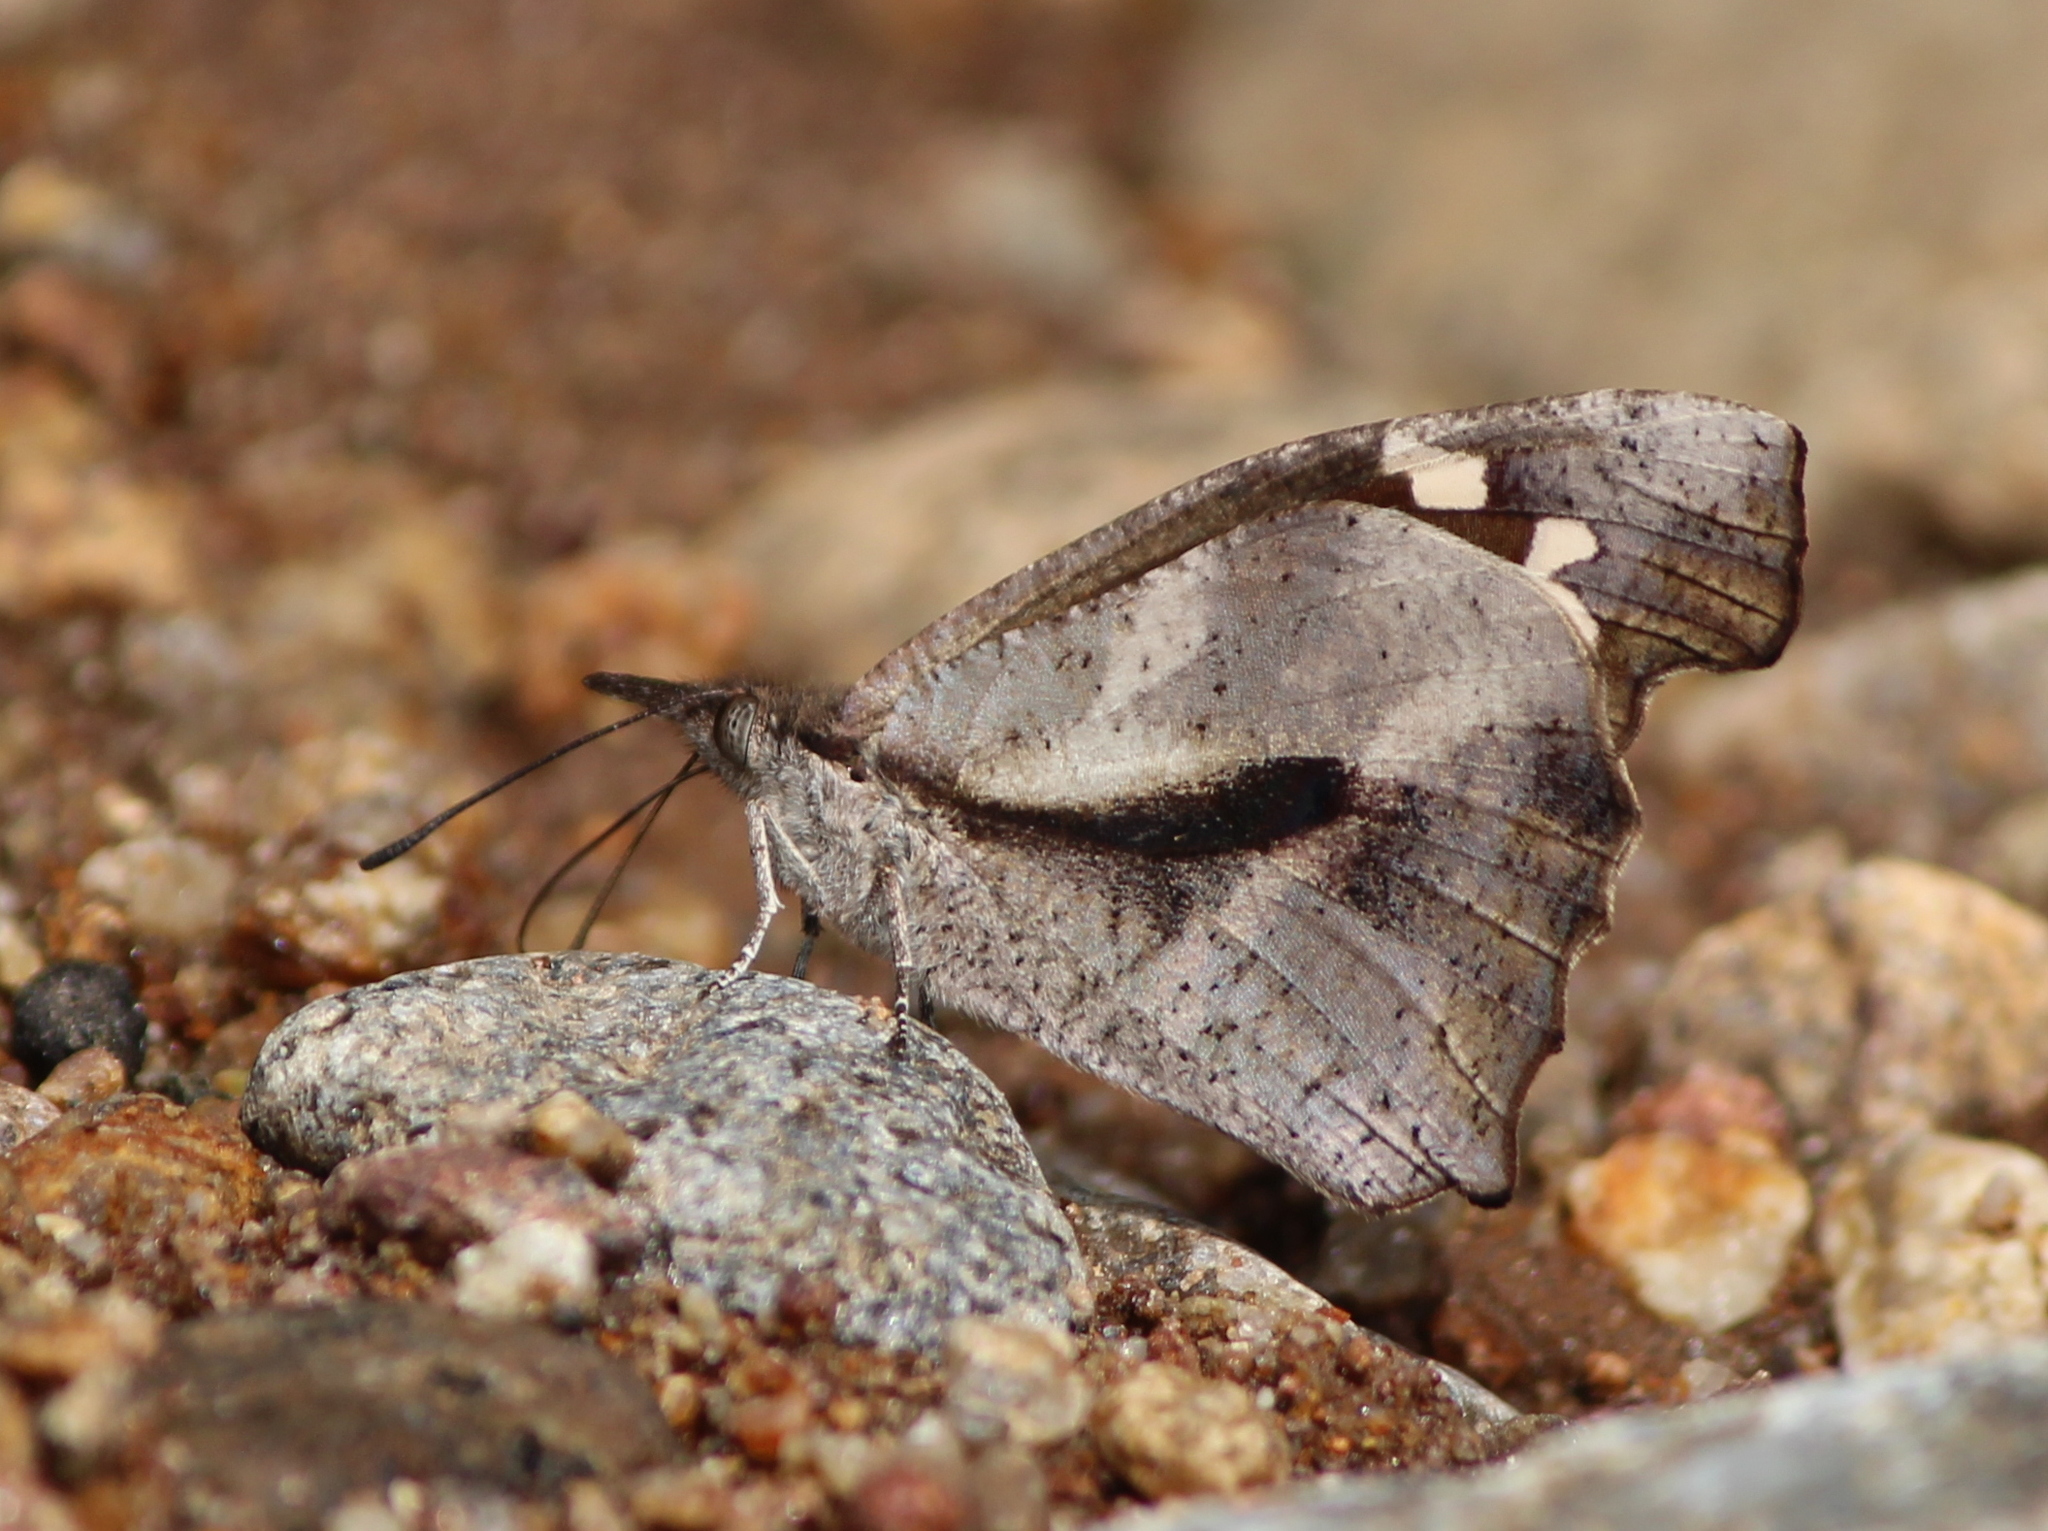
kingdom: Animalia
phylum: Arthropoda
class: Insecta
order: Lepidoptera
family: Nymphalidae
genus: Libythea
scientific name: Libythea laius
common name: African snout
